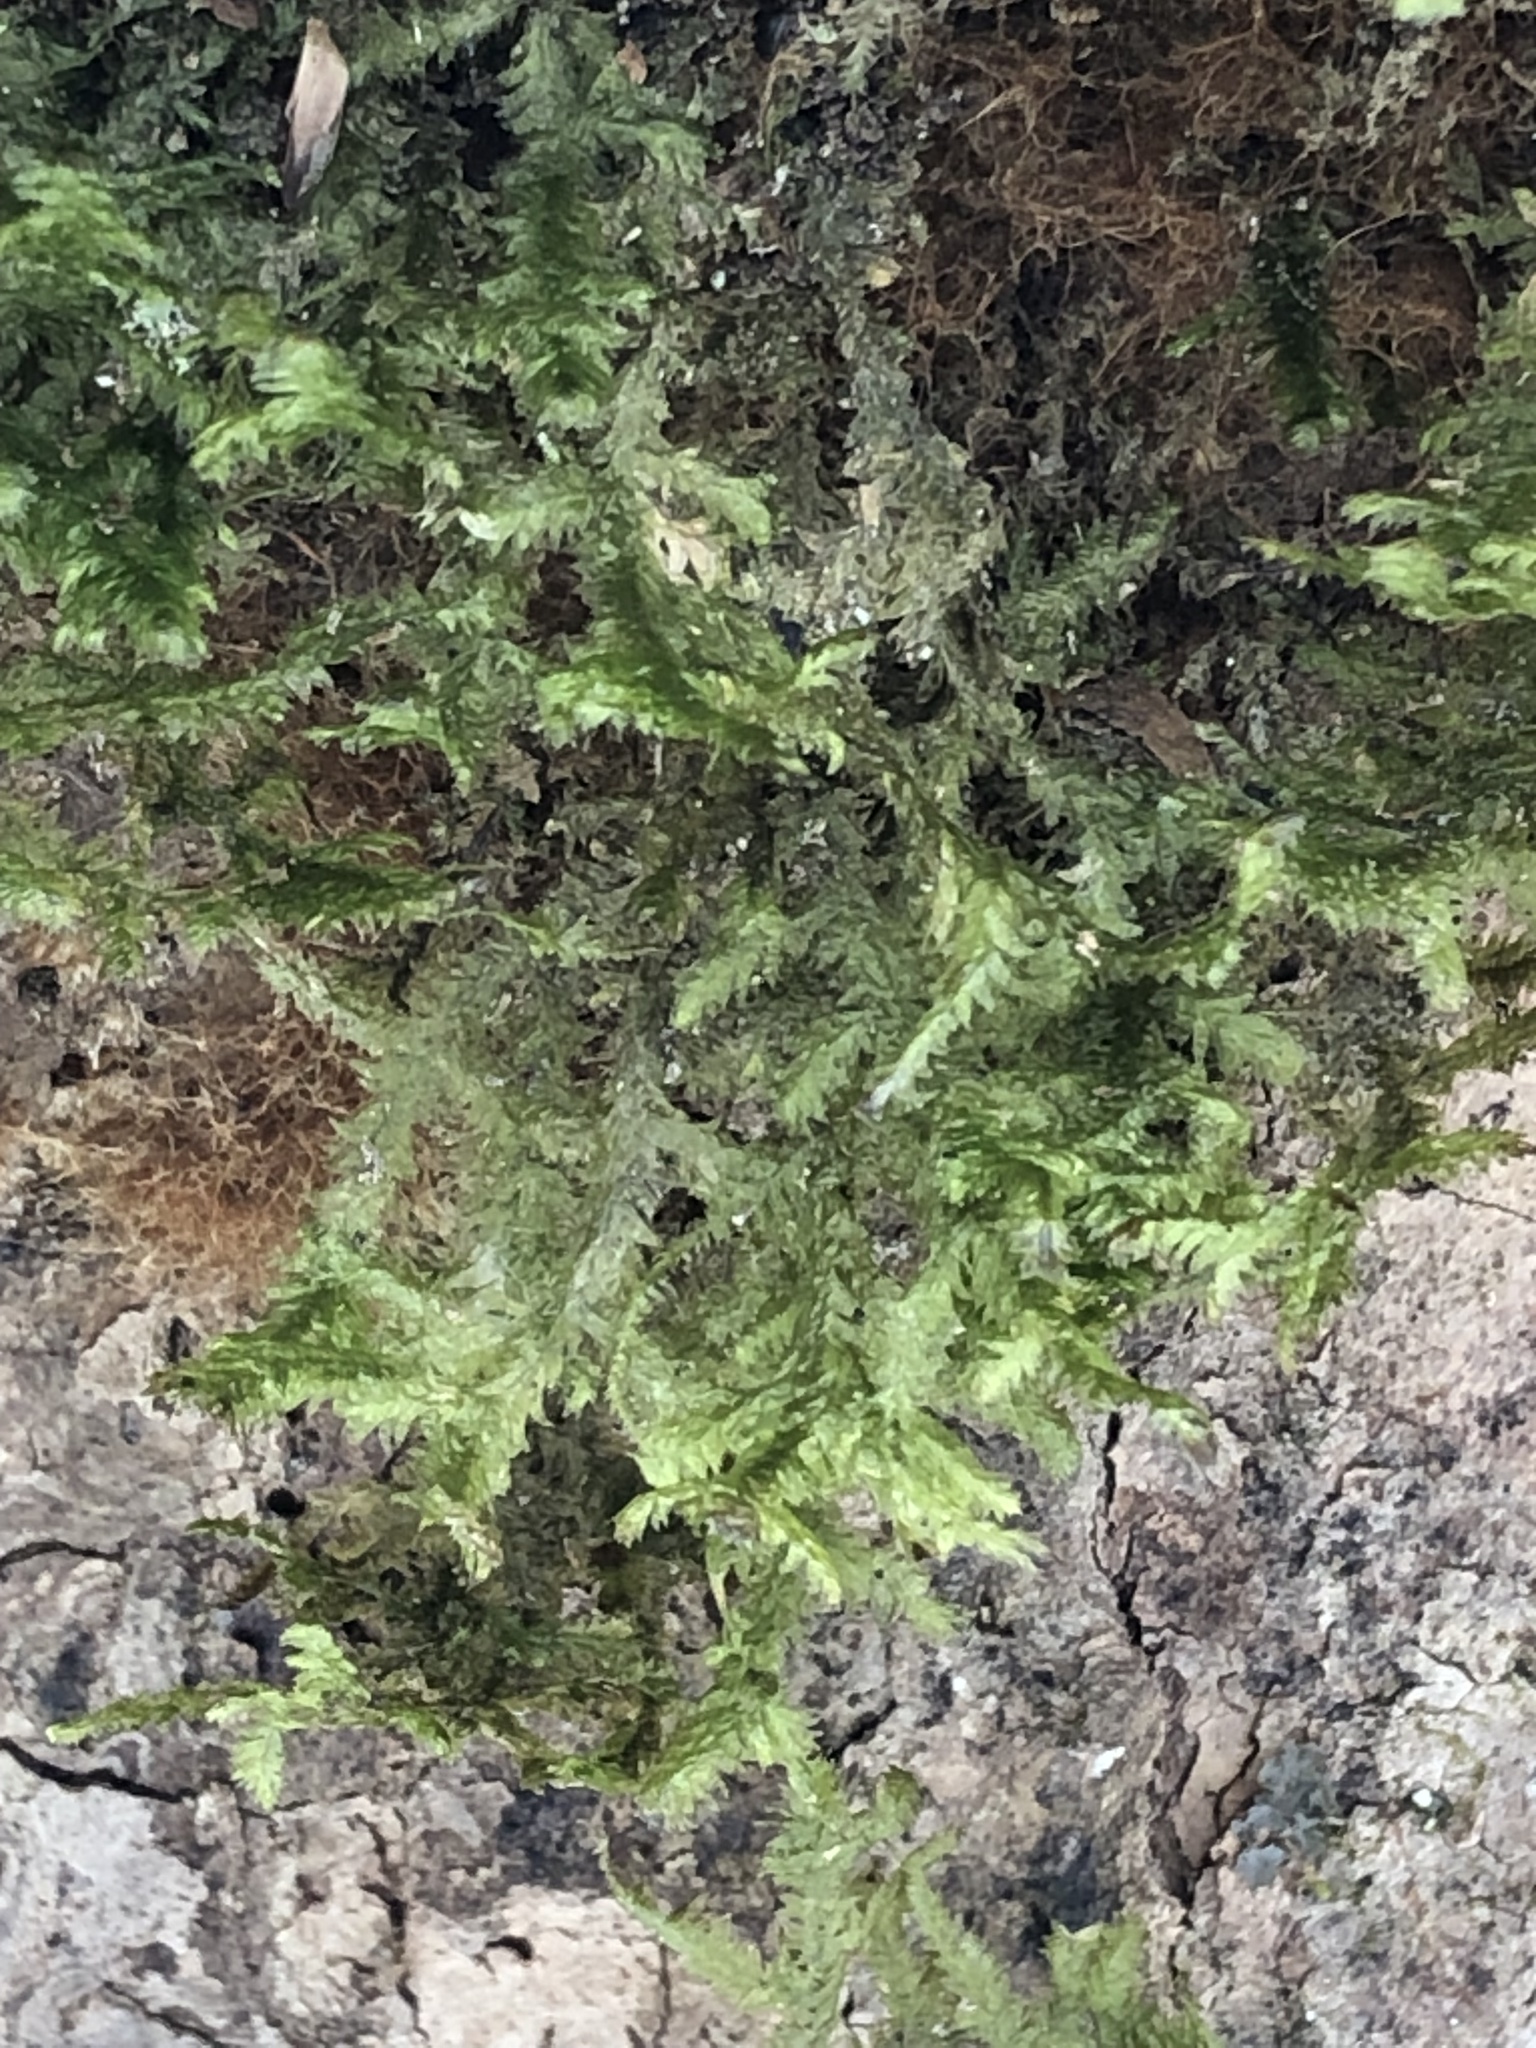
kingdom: Plantae
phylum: Bryophyta
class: Bryopsida
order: Hypnales
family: Neckeraceae
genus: Neckera
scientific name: Neckera pennata
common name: Feathery neckera
